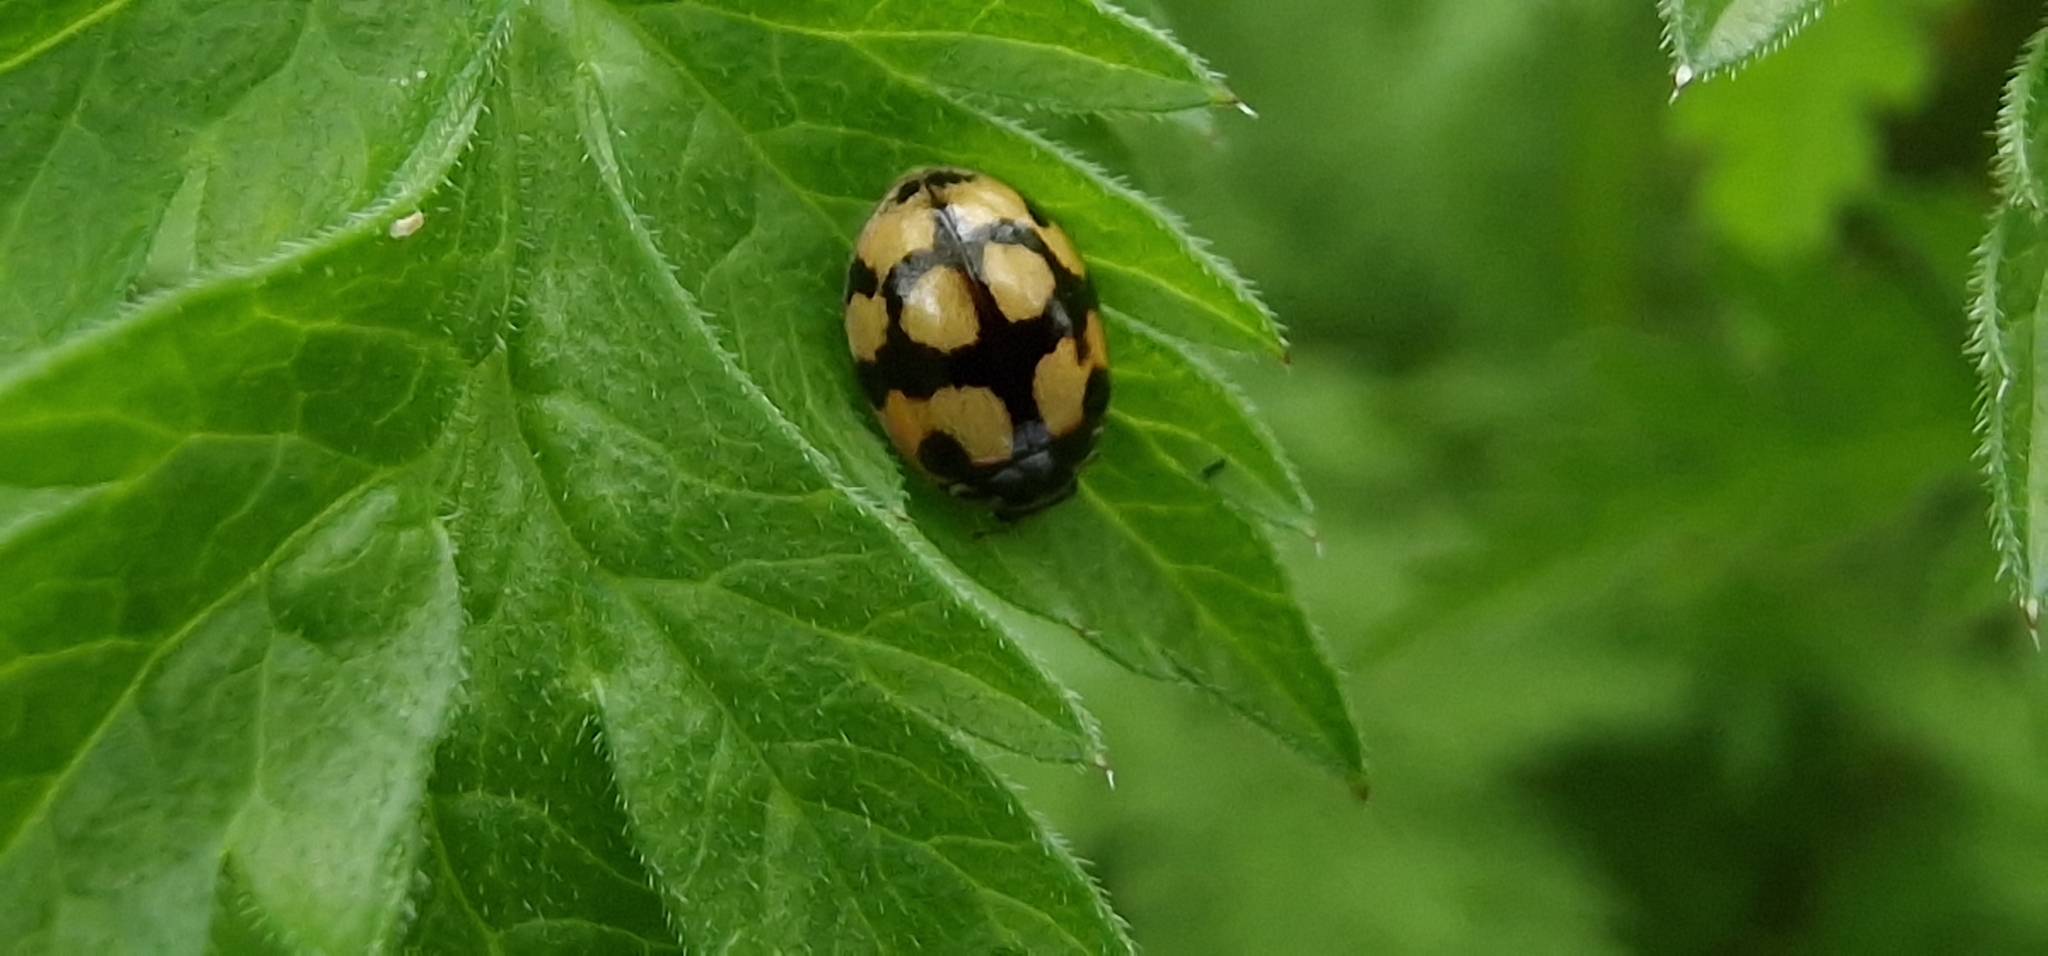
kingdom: Animalia
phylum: Arthropoda
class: Insecta
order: Coleoptera
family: Coccinellidae
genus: Adalia
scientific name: Adalia decempunctata
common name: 10-spot ladybird
